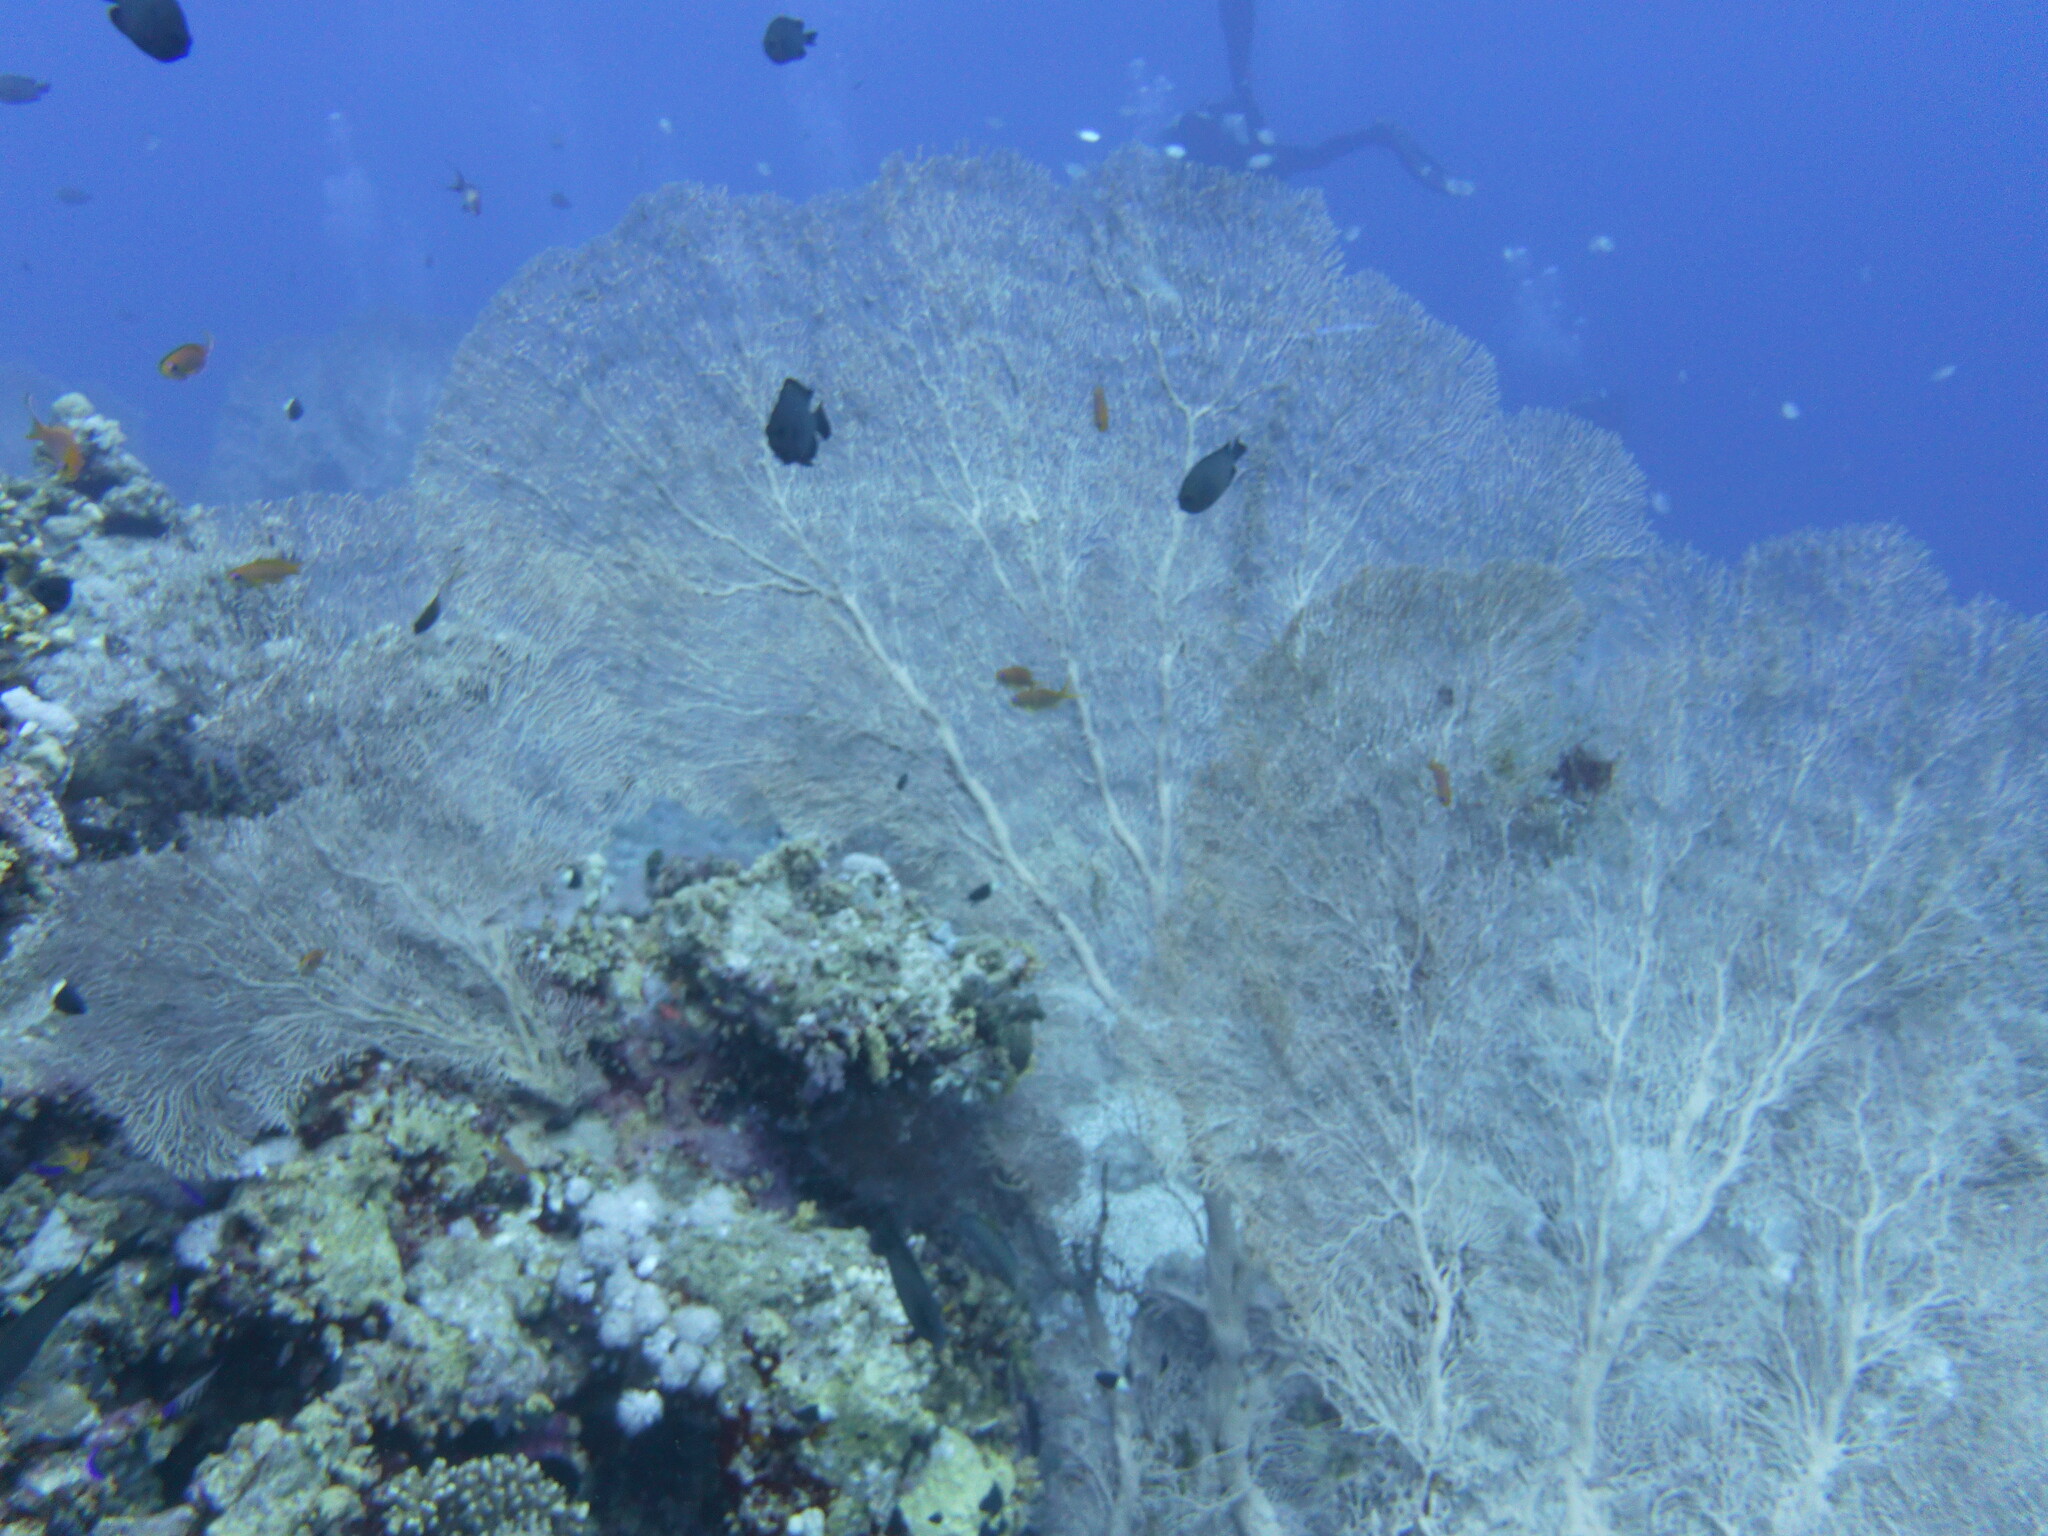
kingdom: Animalia
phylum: Cnidaria
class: Anthozoa
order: Malacalcyonacea
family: Subergorgiidae
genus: Annella
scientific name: Annella mollis
